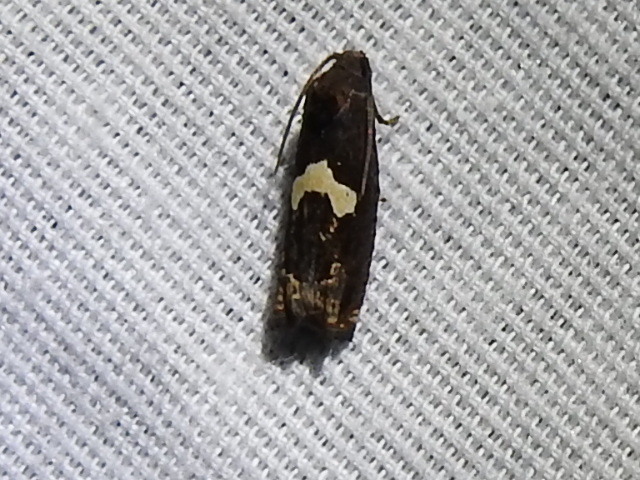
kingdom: Animalia
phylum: Arthropoda
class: Insecta
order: Lepidoptera
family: Tortricidae
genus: Epiblema
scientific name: Epiblema otiosana
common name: Bidens borer moth
